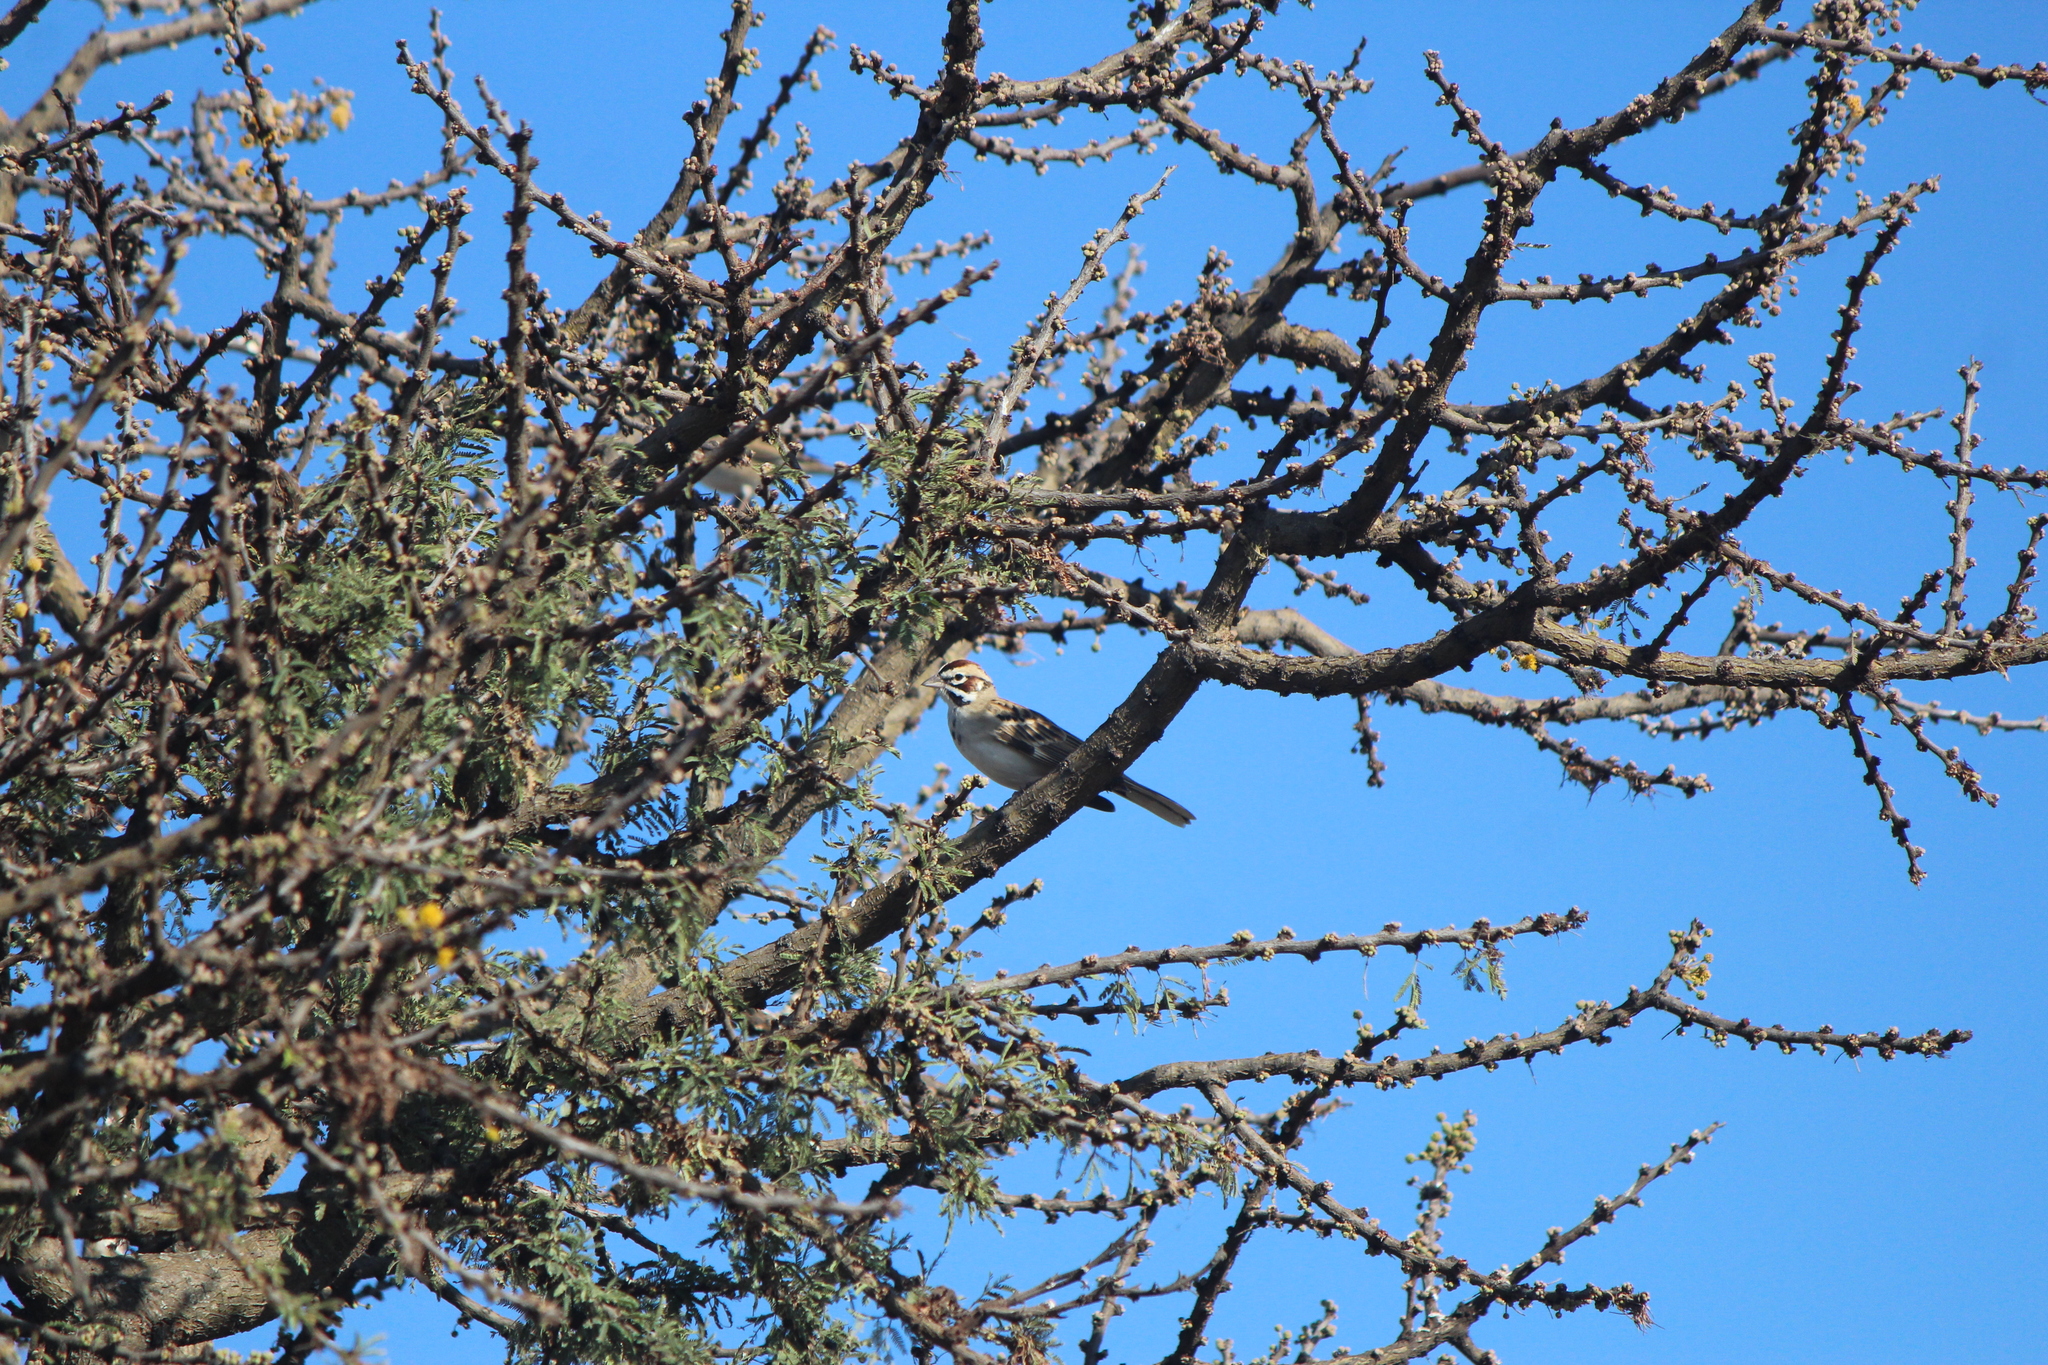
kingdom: Animalia
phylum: Chordata
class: Aves
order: Passeriformes
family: Passerellidae
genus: Chondestes
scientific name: Chondestes grammacus
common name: Lark sparrow
